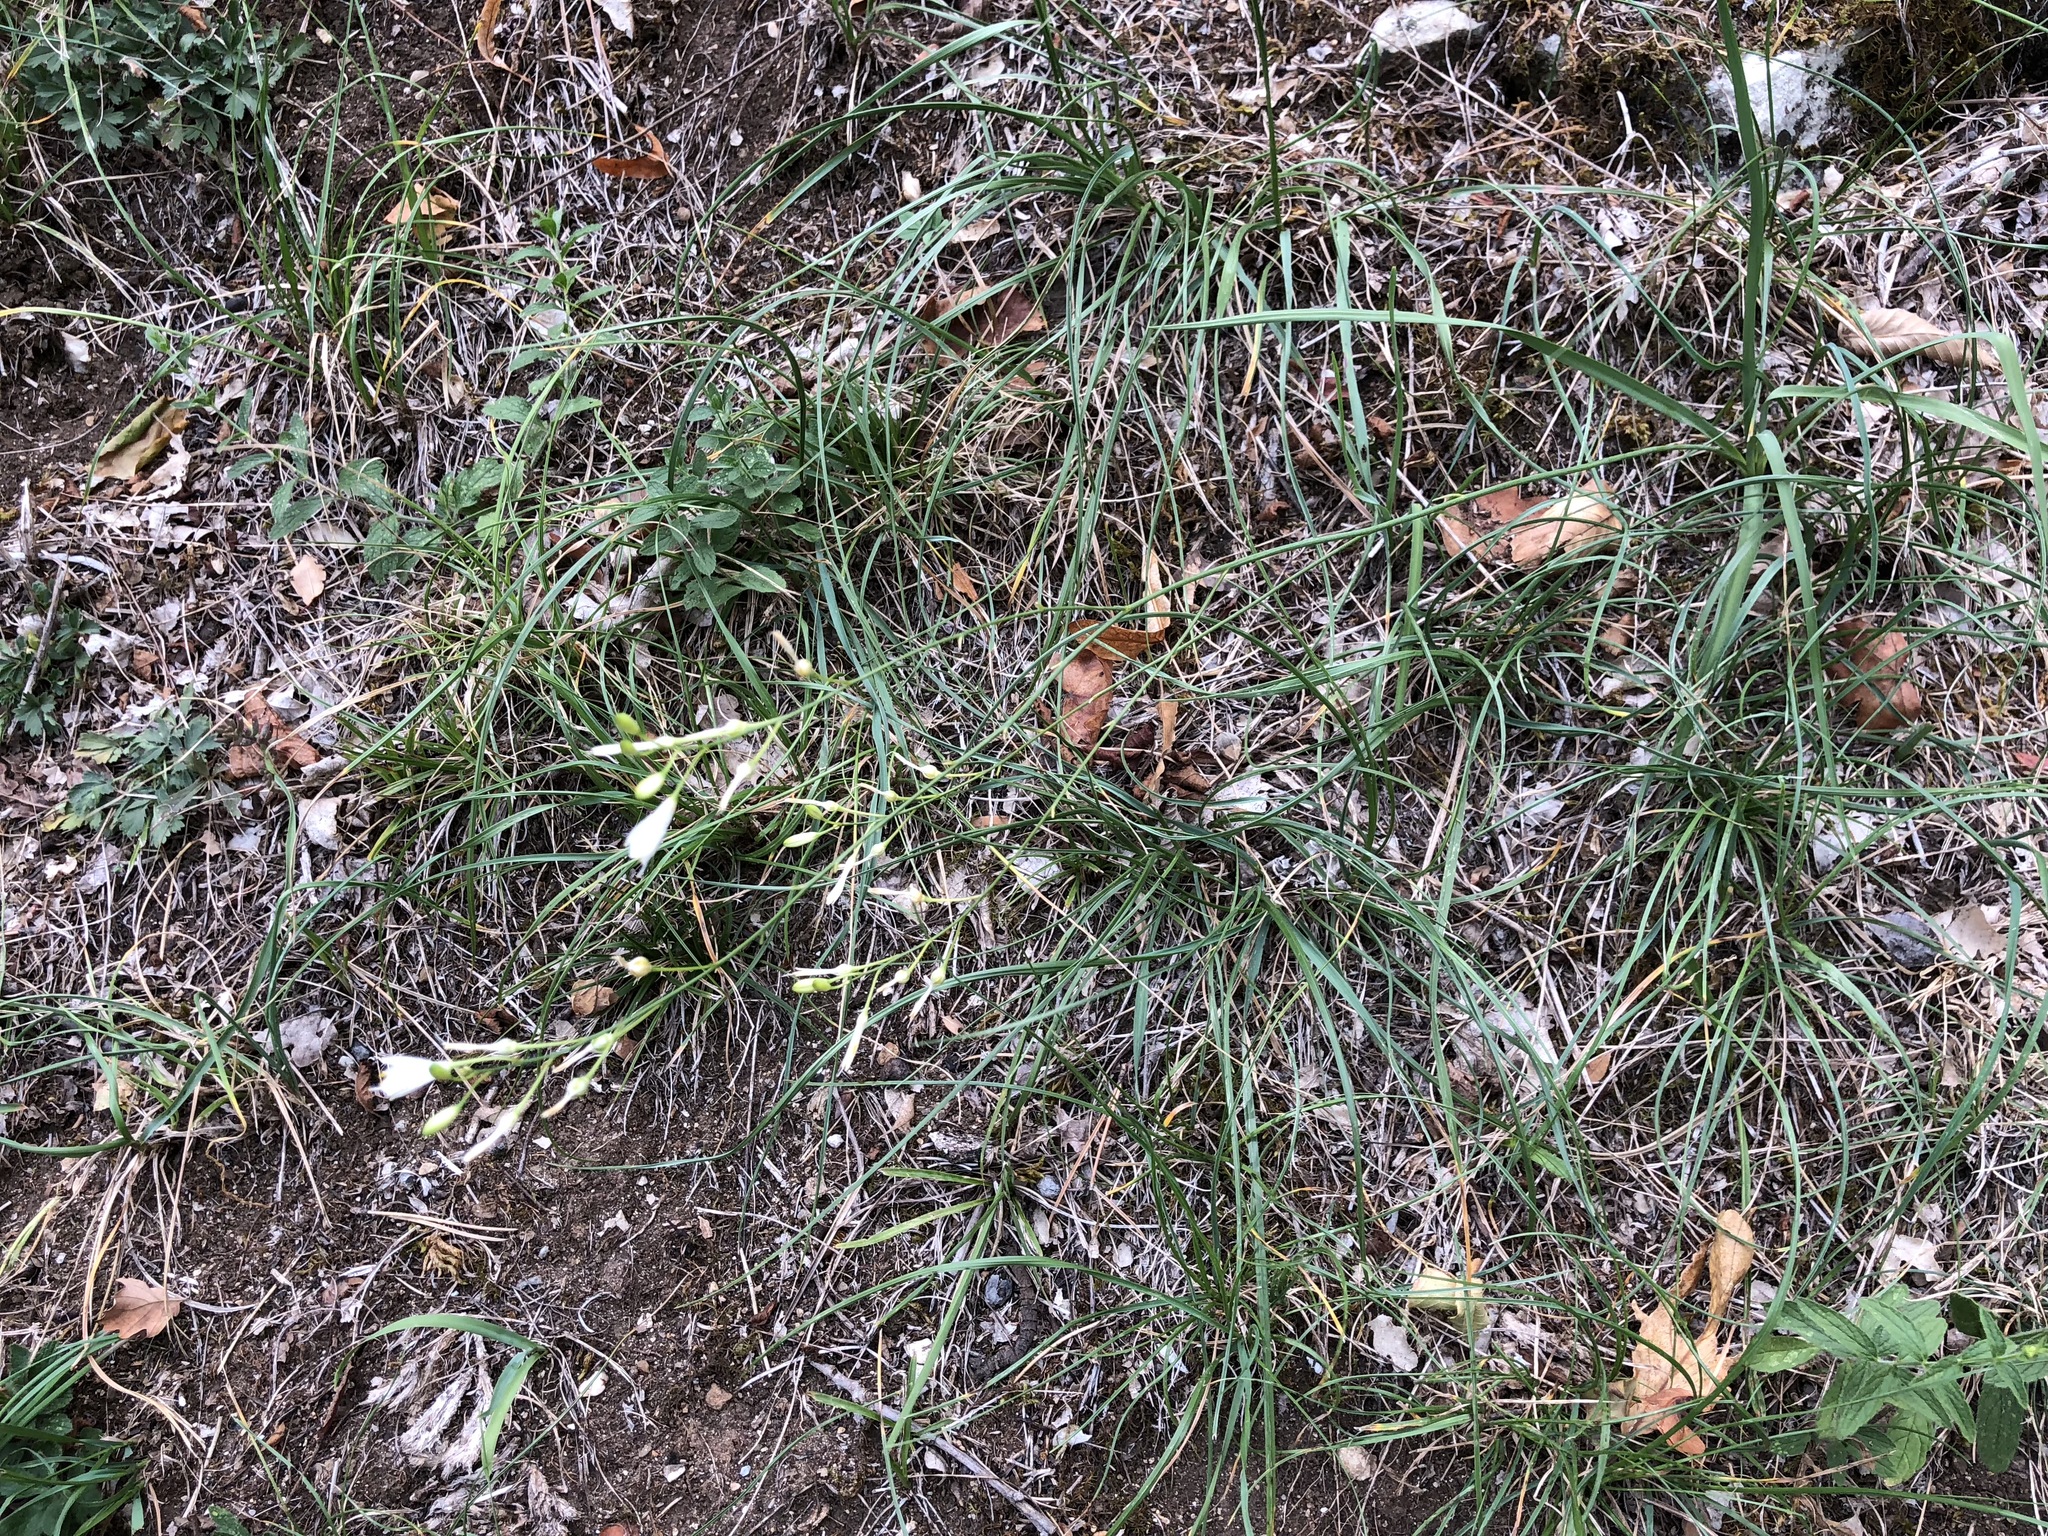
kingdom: Plantae
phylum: Tracheophyta
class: Liliopsida
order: Asparagales
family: Asparagaceae
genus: Anthericum
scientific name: Anthericum ramosum
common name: Branched st. bernard's-lily
